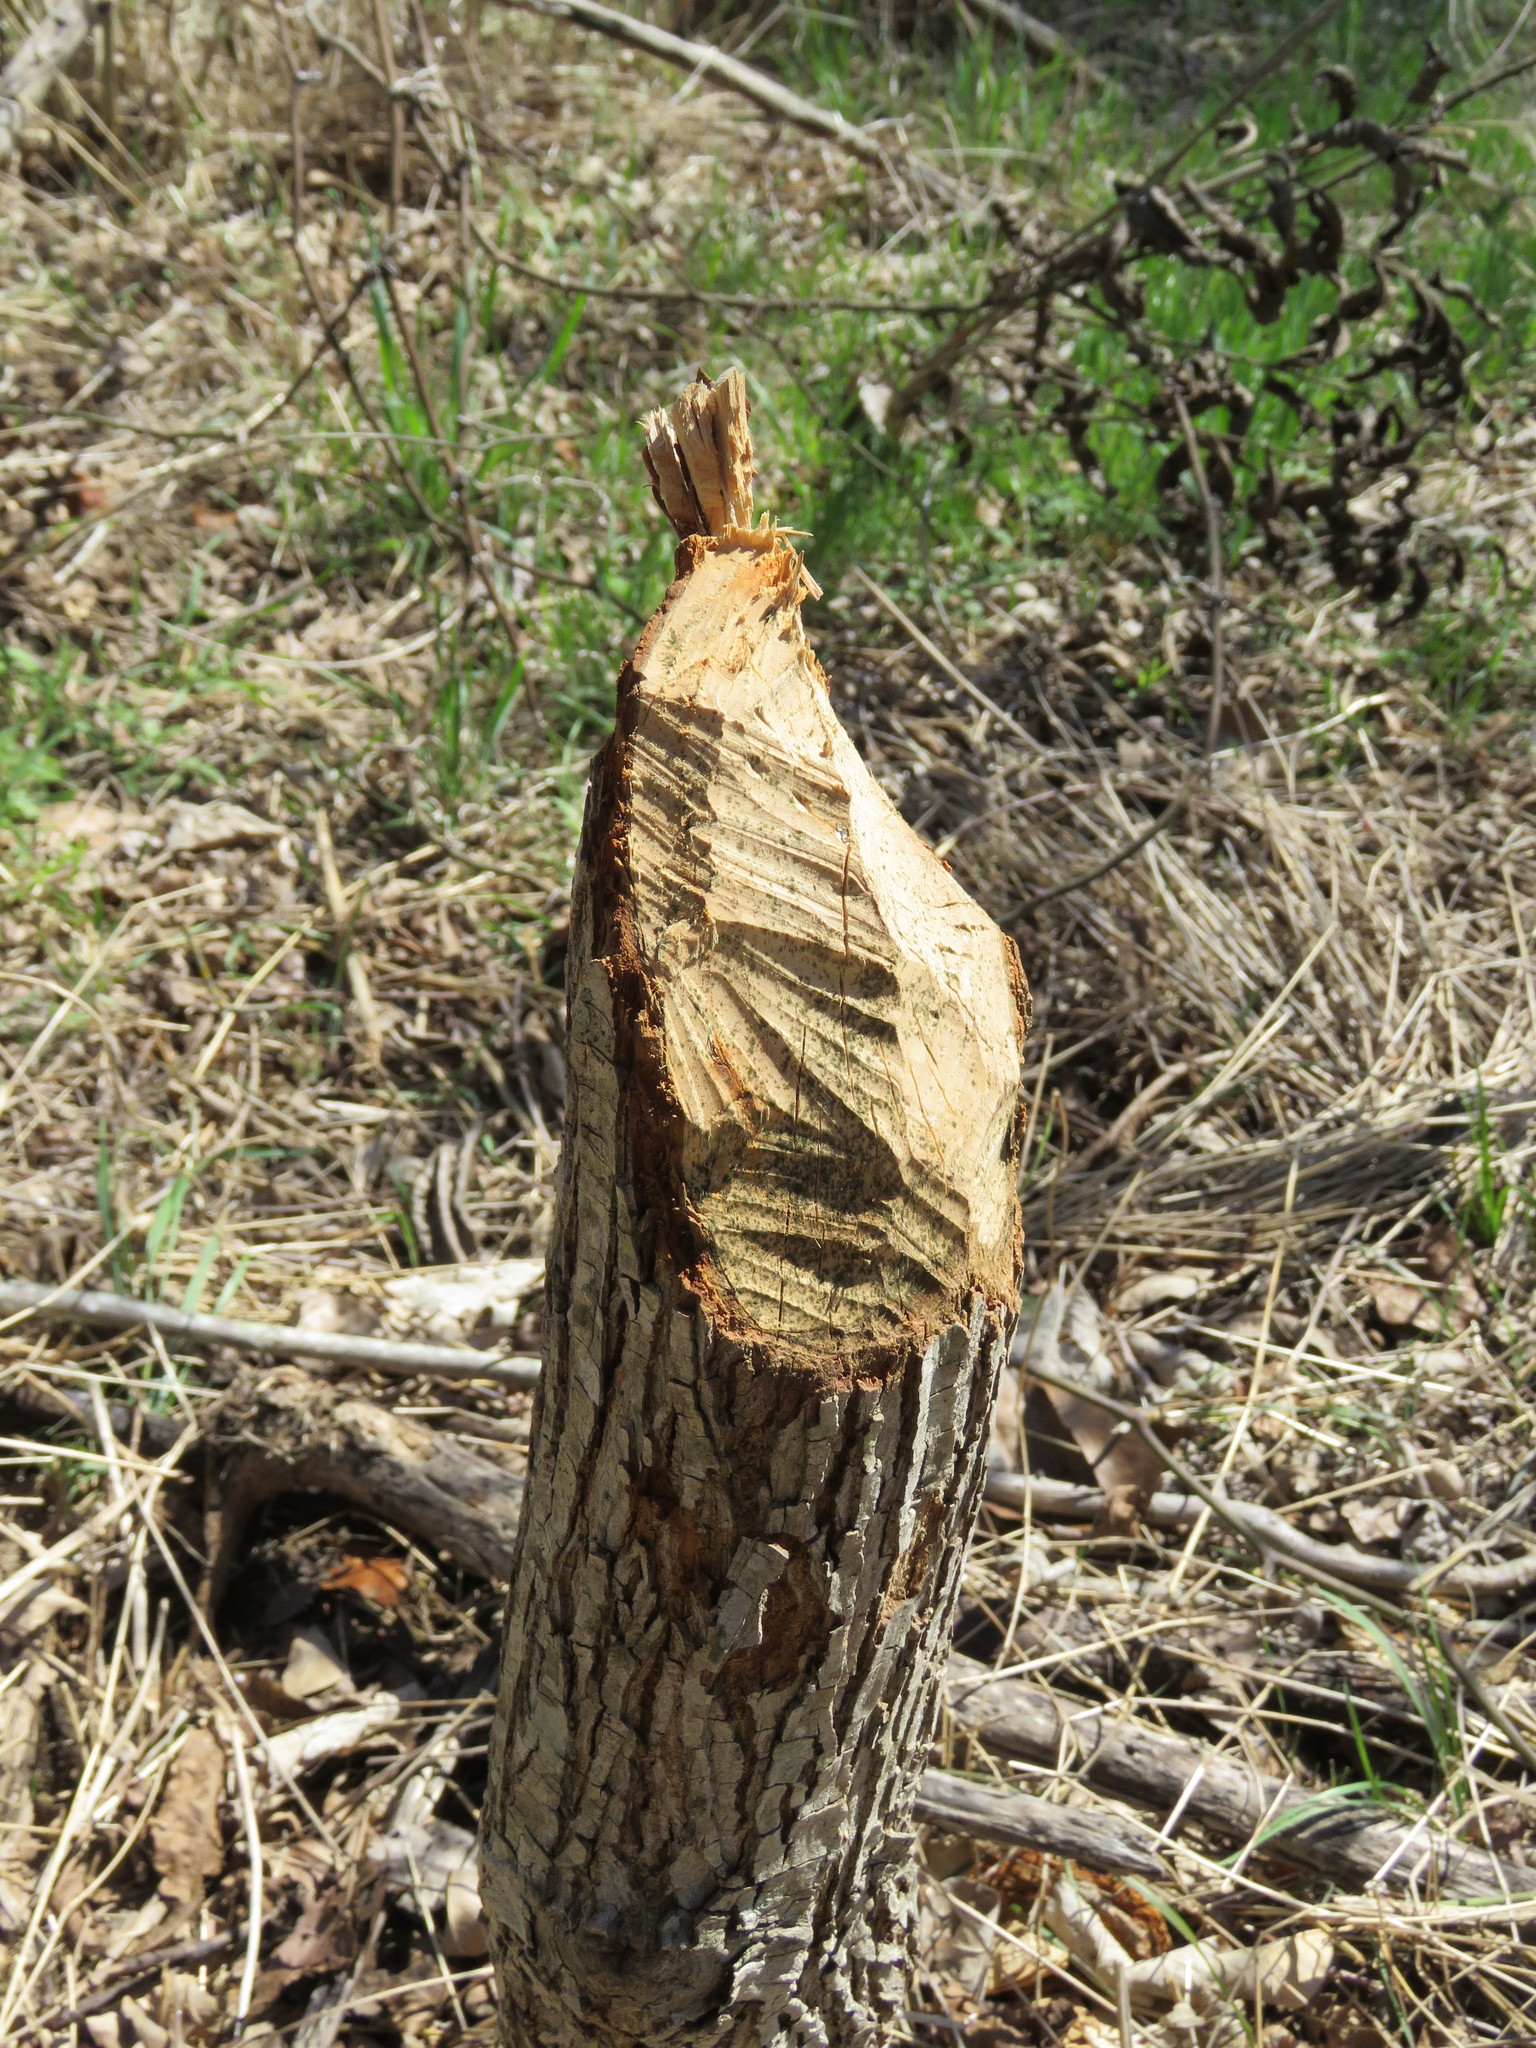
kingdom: Animalia
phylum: Chordata
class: Mammalia
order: Rodentia
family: Castoridae
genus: Castor
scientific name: Castor canadensis
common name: American beaver
